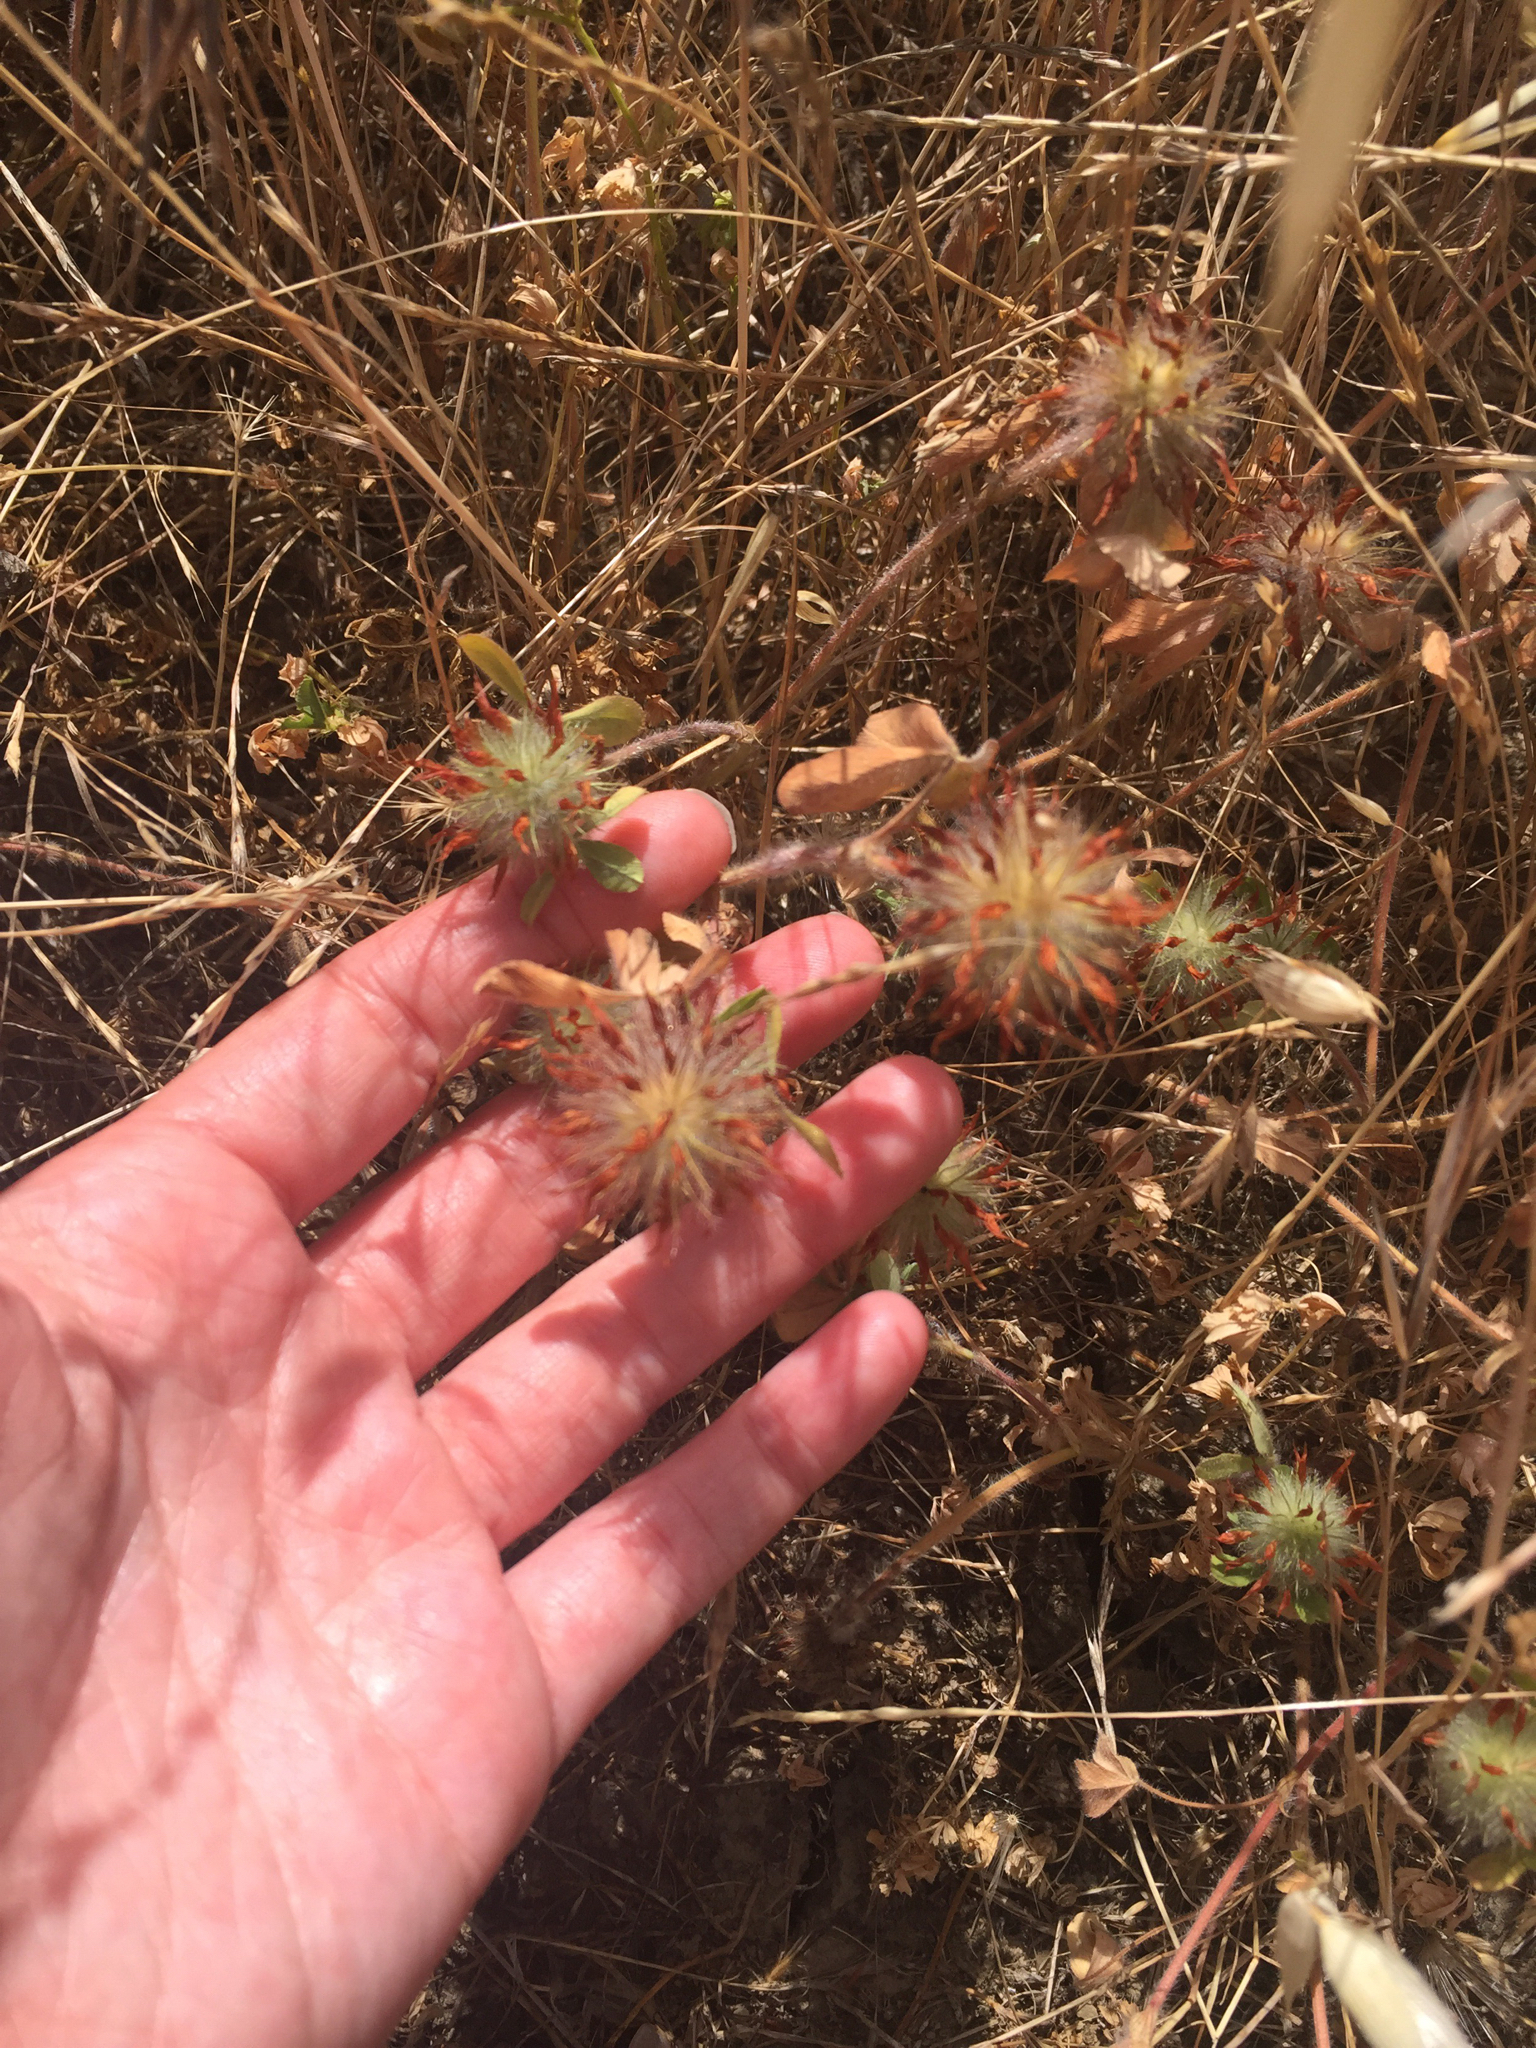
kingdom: Plantae
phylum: Tracheophyta
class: Magnoliopsida
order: Fabales
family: Fabaceae
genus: Trifolium
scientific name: Trifolium hirtum
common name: Rose clover
